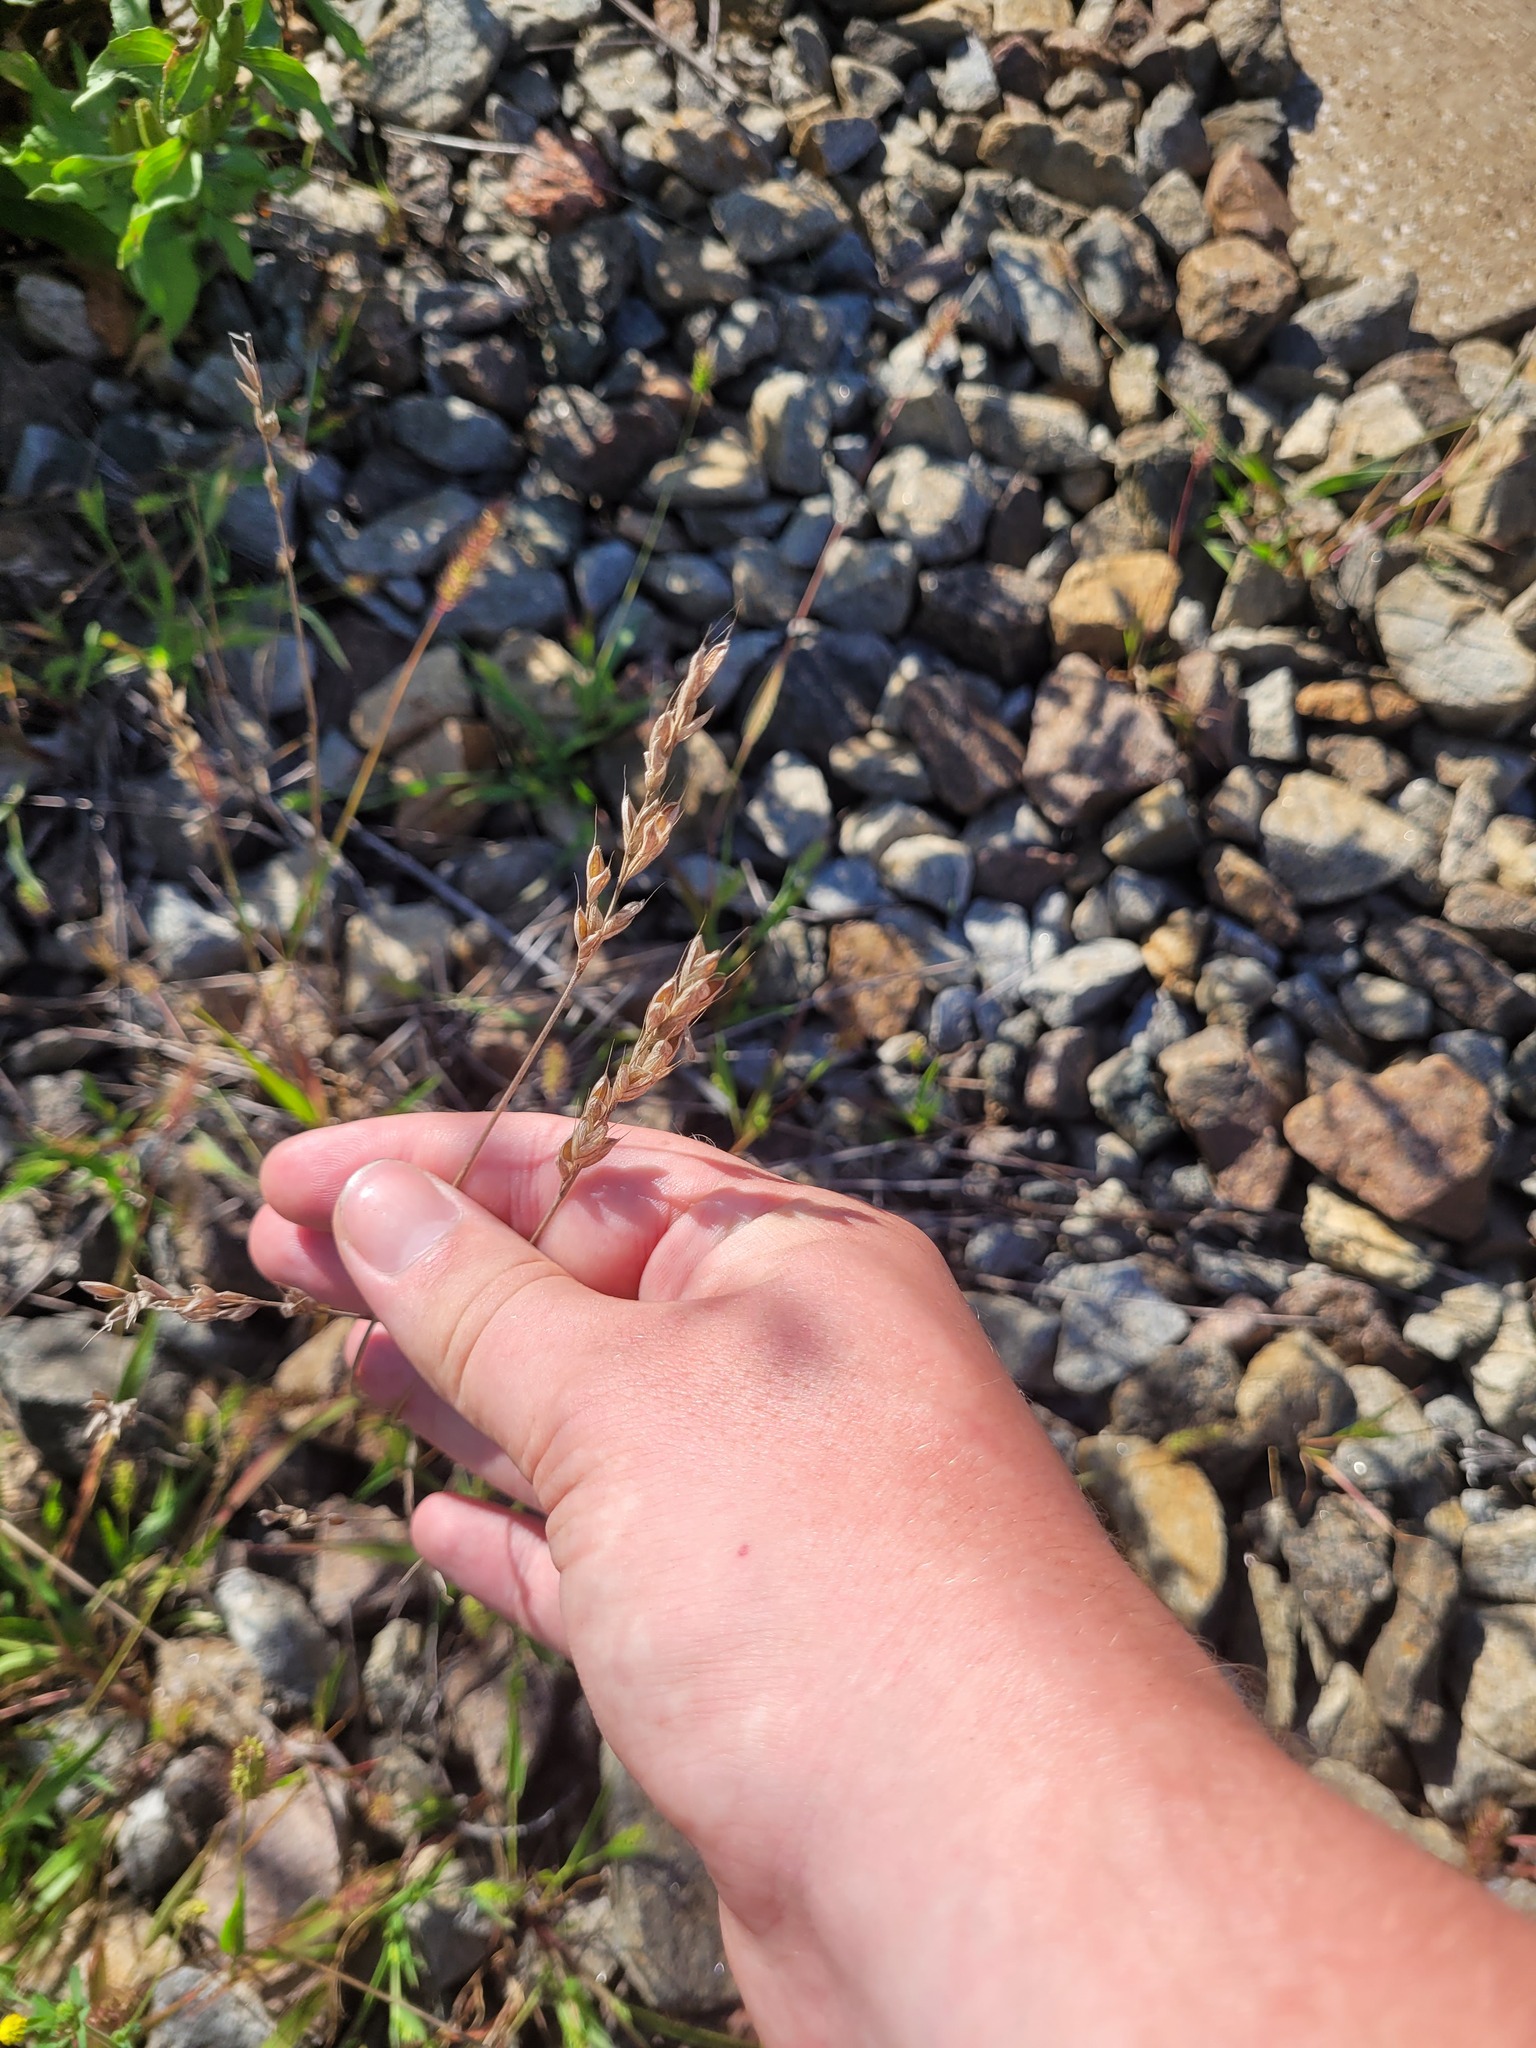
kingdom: Plantae
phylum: Tracheophyta
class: Liliopsida
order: Poales
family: Poaceae
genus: Bromus
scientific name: Bromus hordeaceus
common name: Soft brome
